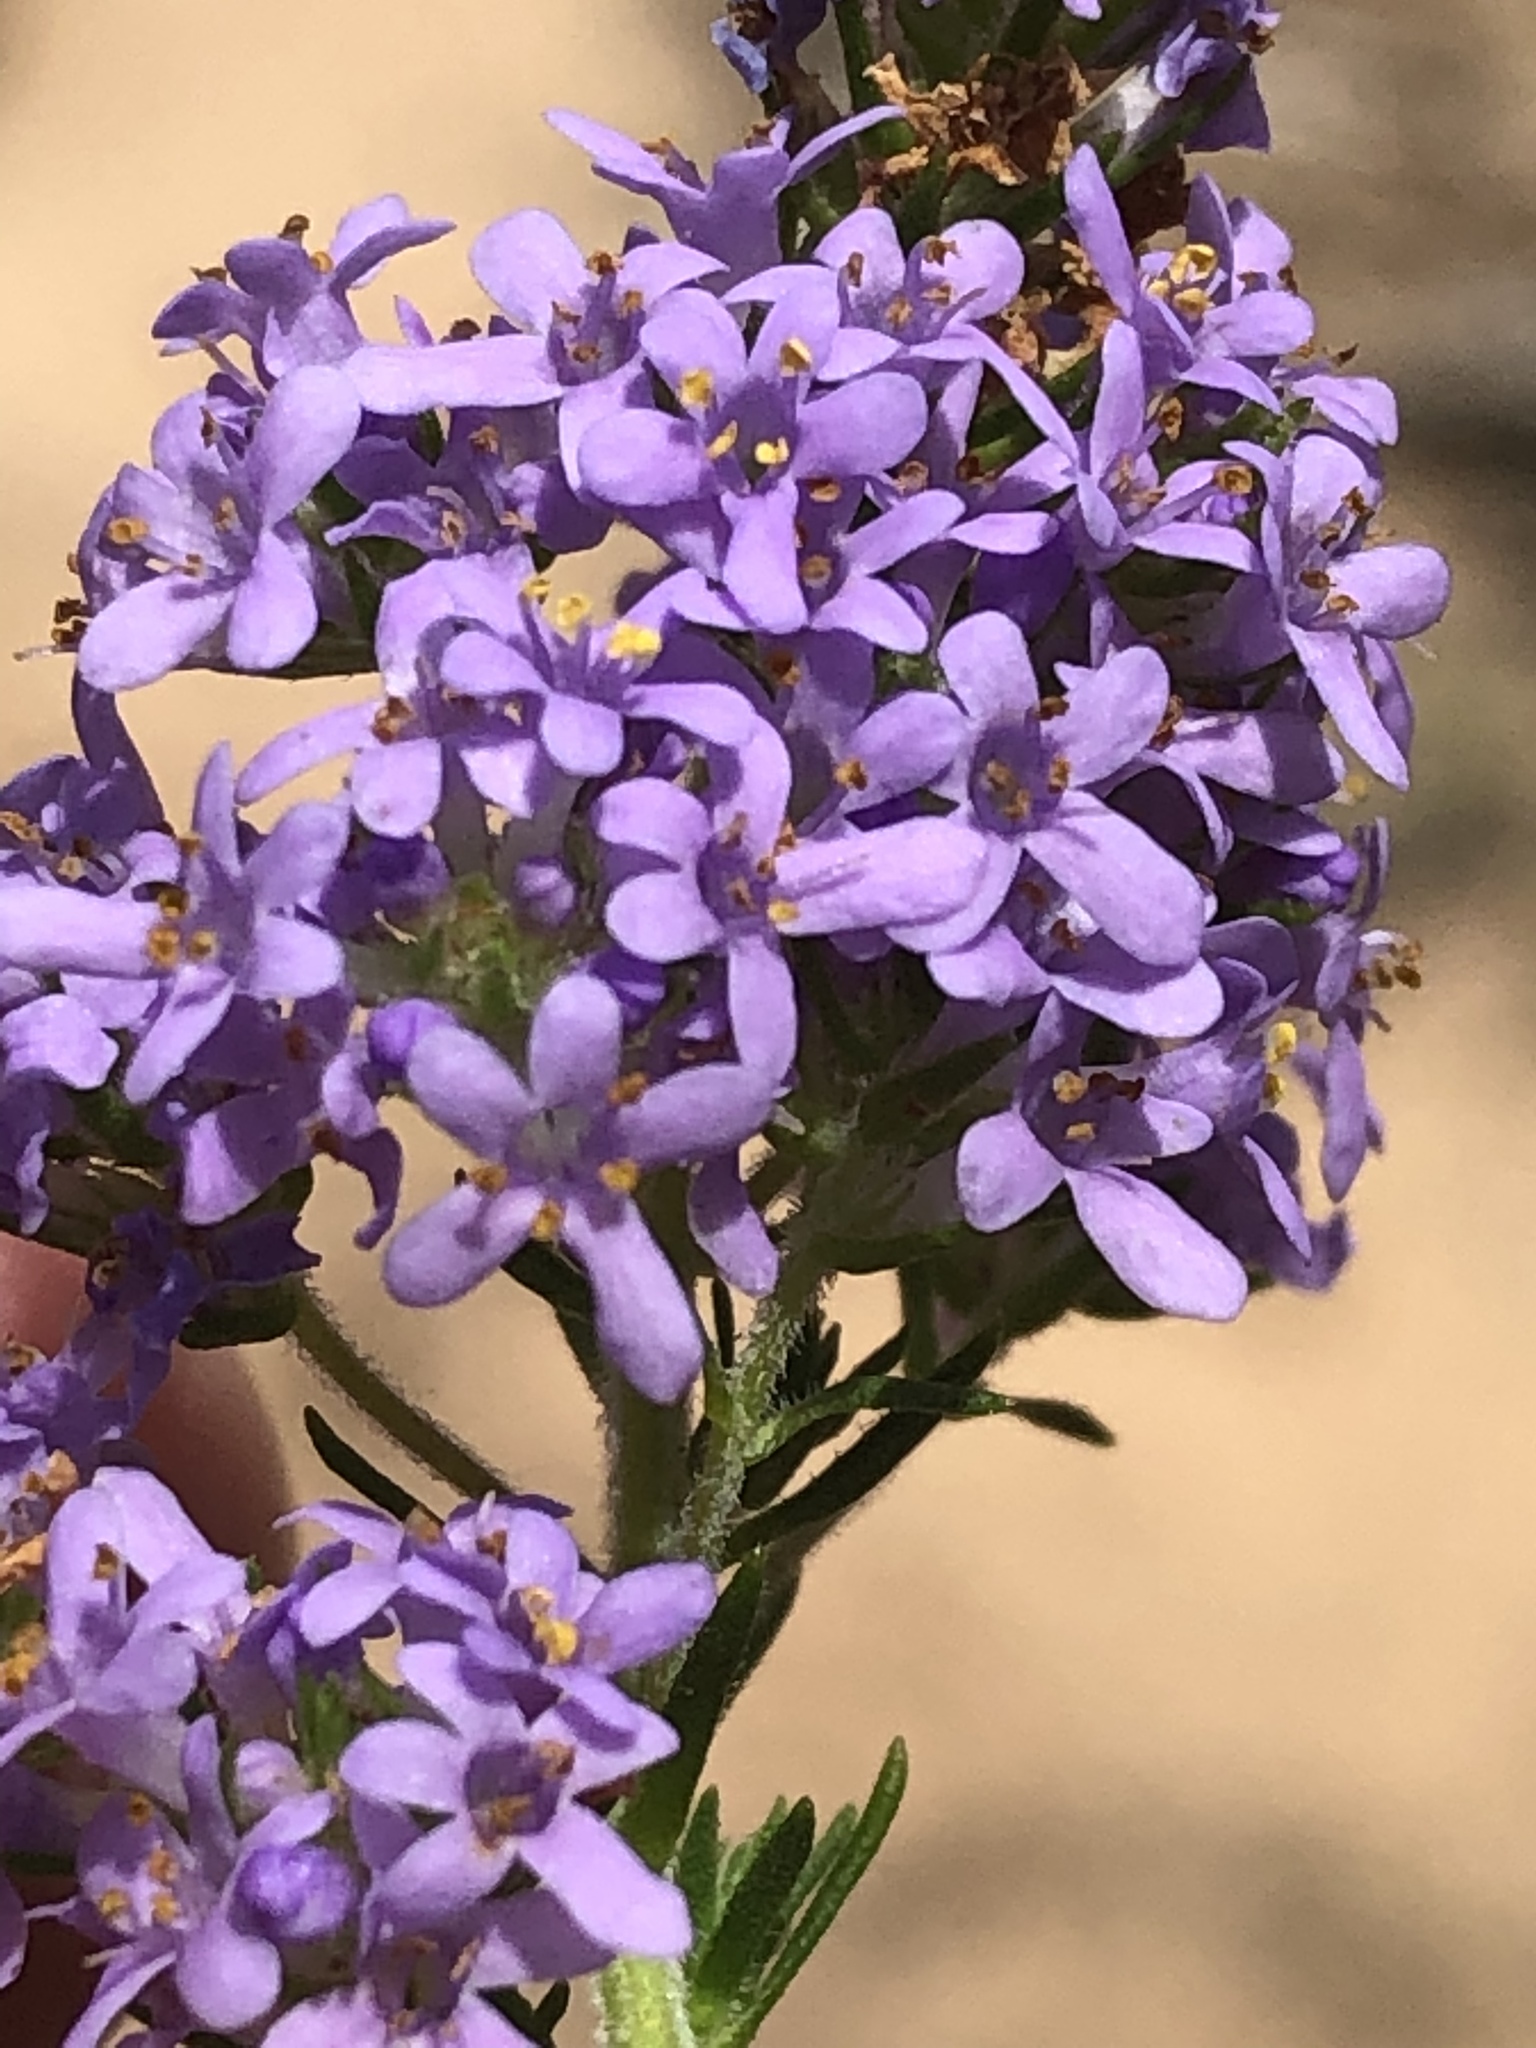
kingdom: Plantae
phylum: Tracheophyta
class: Magnoliopsida
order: Lamiales
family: Scrophulariaceae
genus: Selago
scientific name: Selago villicaulis
